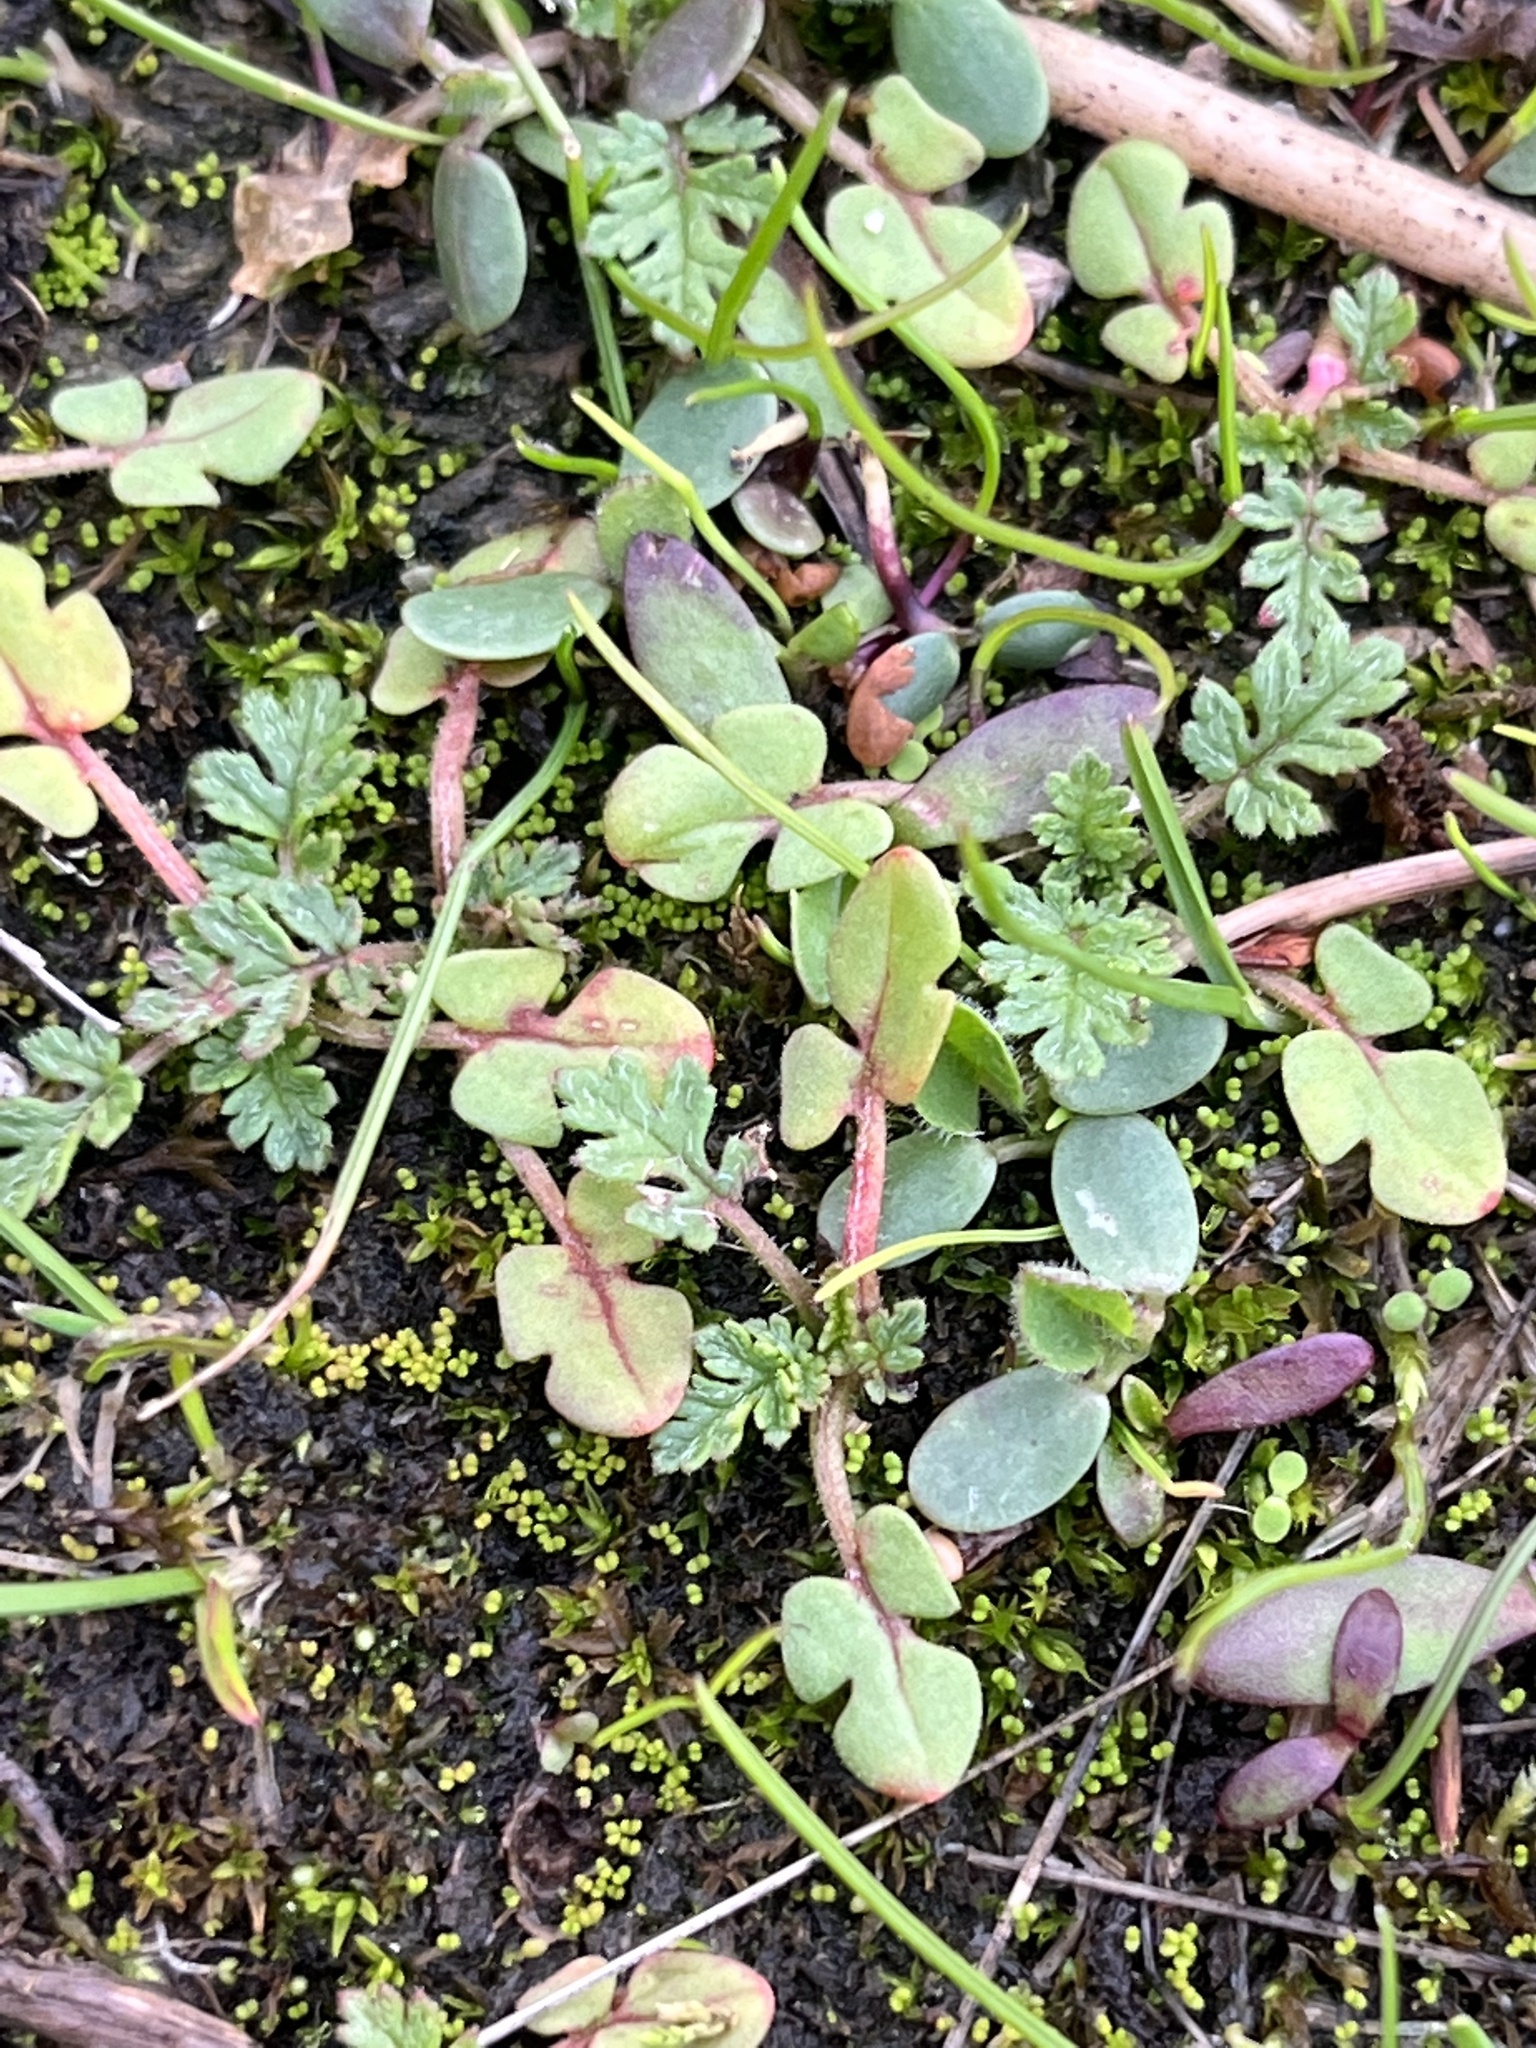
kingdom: Plantae
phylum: Tracheophyta
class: Magnoliopsida
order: Geraniales
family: Geraniaceae
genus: Erodium
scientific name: Erodium cicutarium
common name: Common stork's-bill
